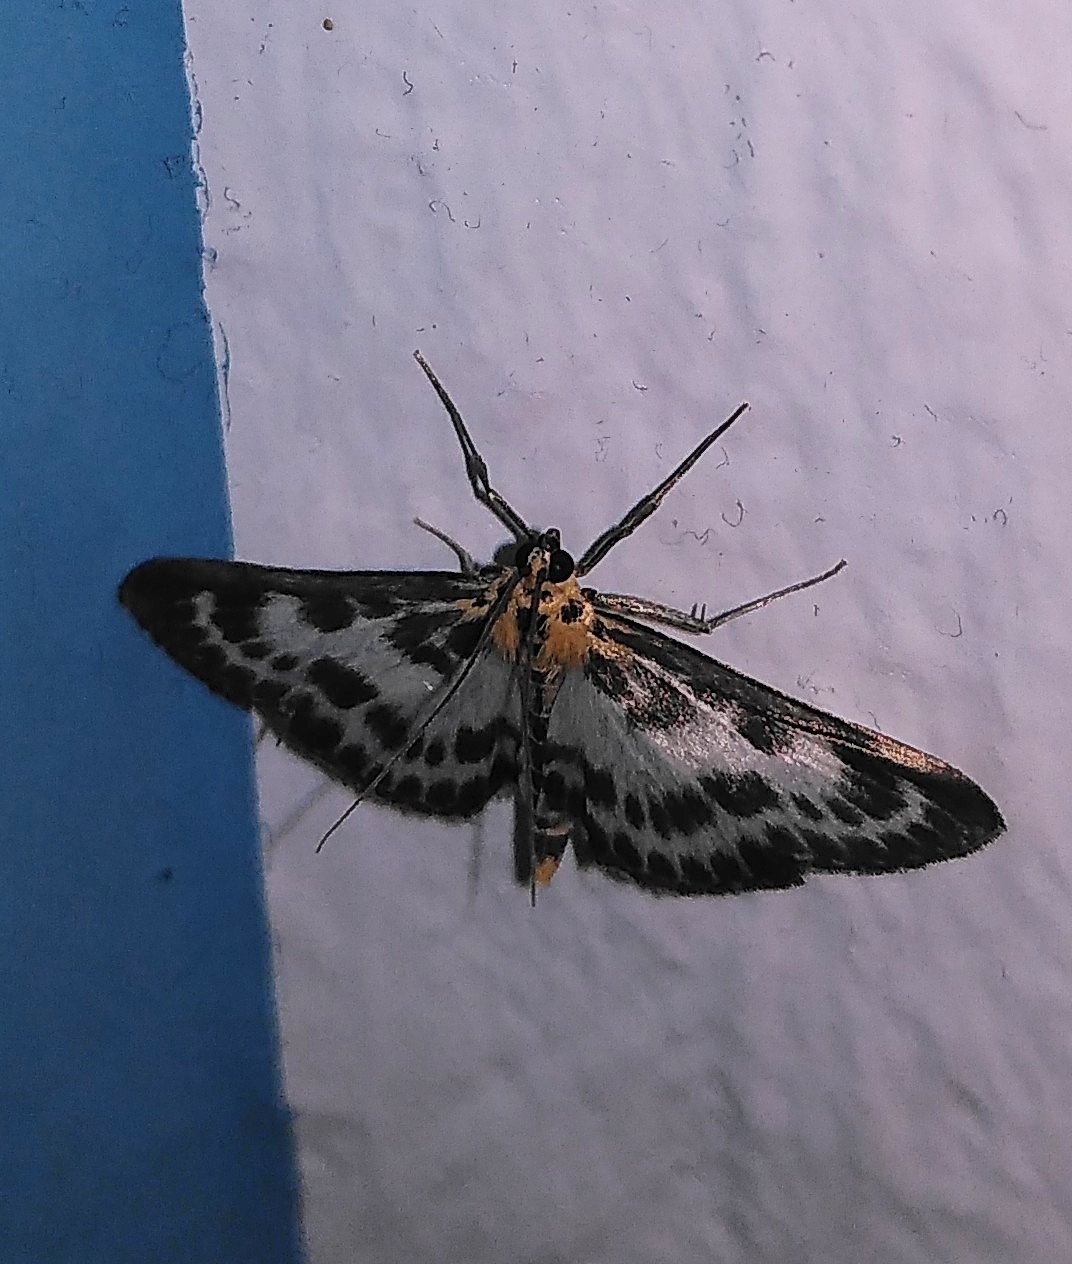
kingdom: Animalia
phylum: Arthropoda
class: Insecta
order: Lepidoptera
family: Crambidae
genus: Anania
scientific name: Anania hortulata
